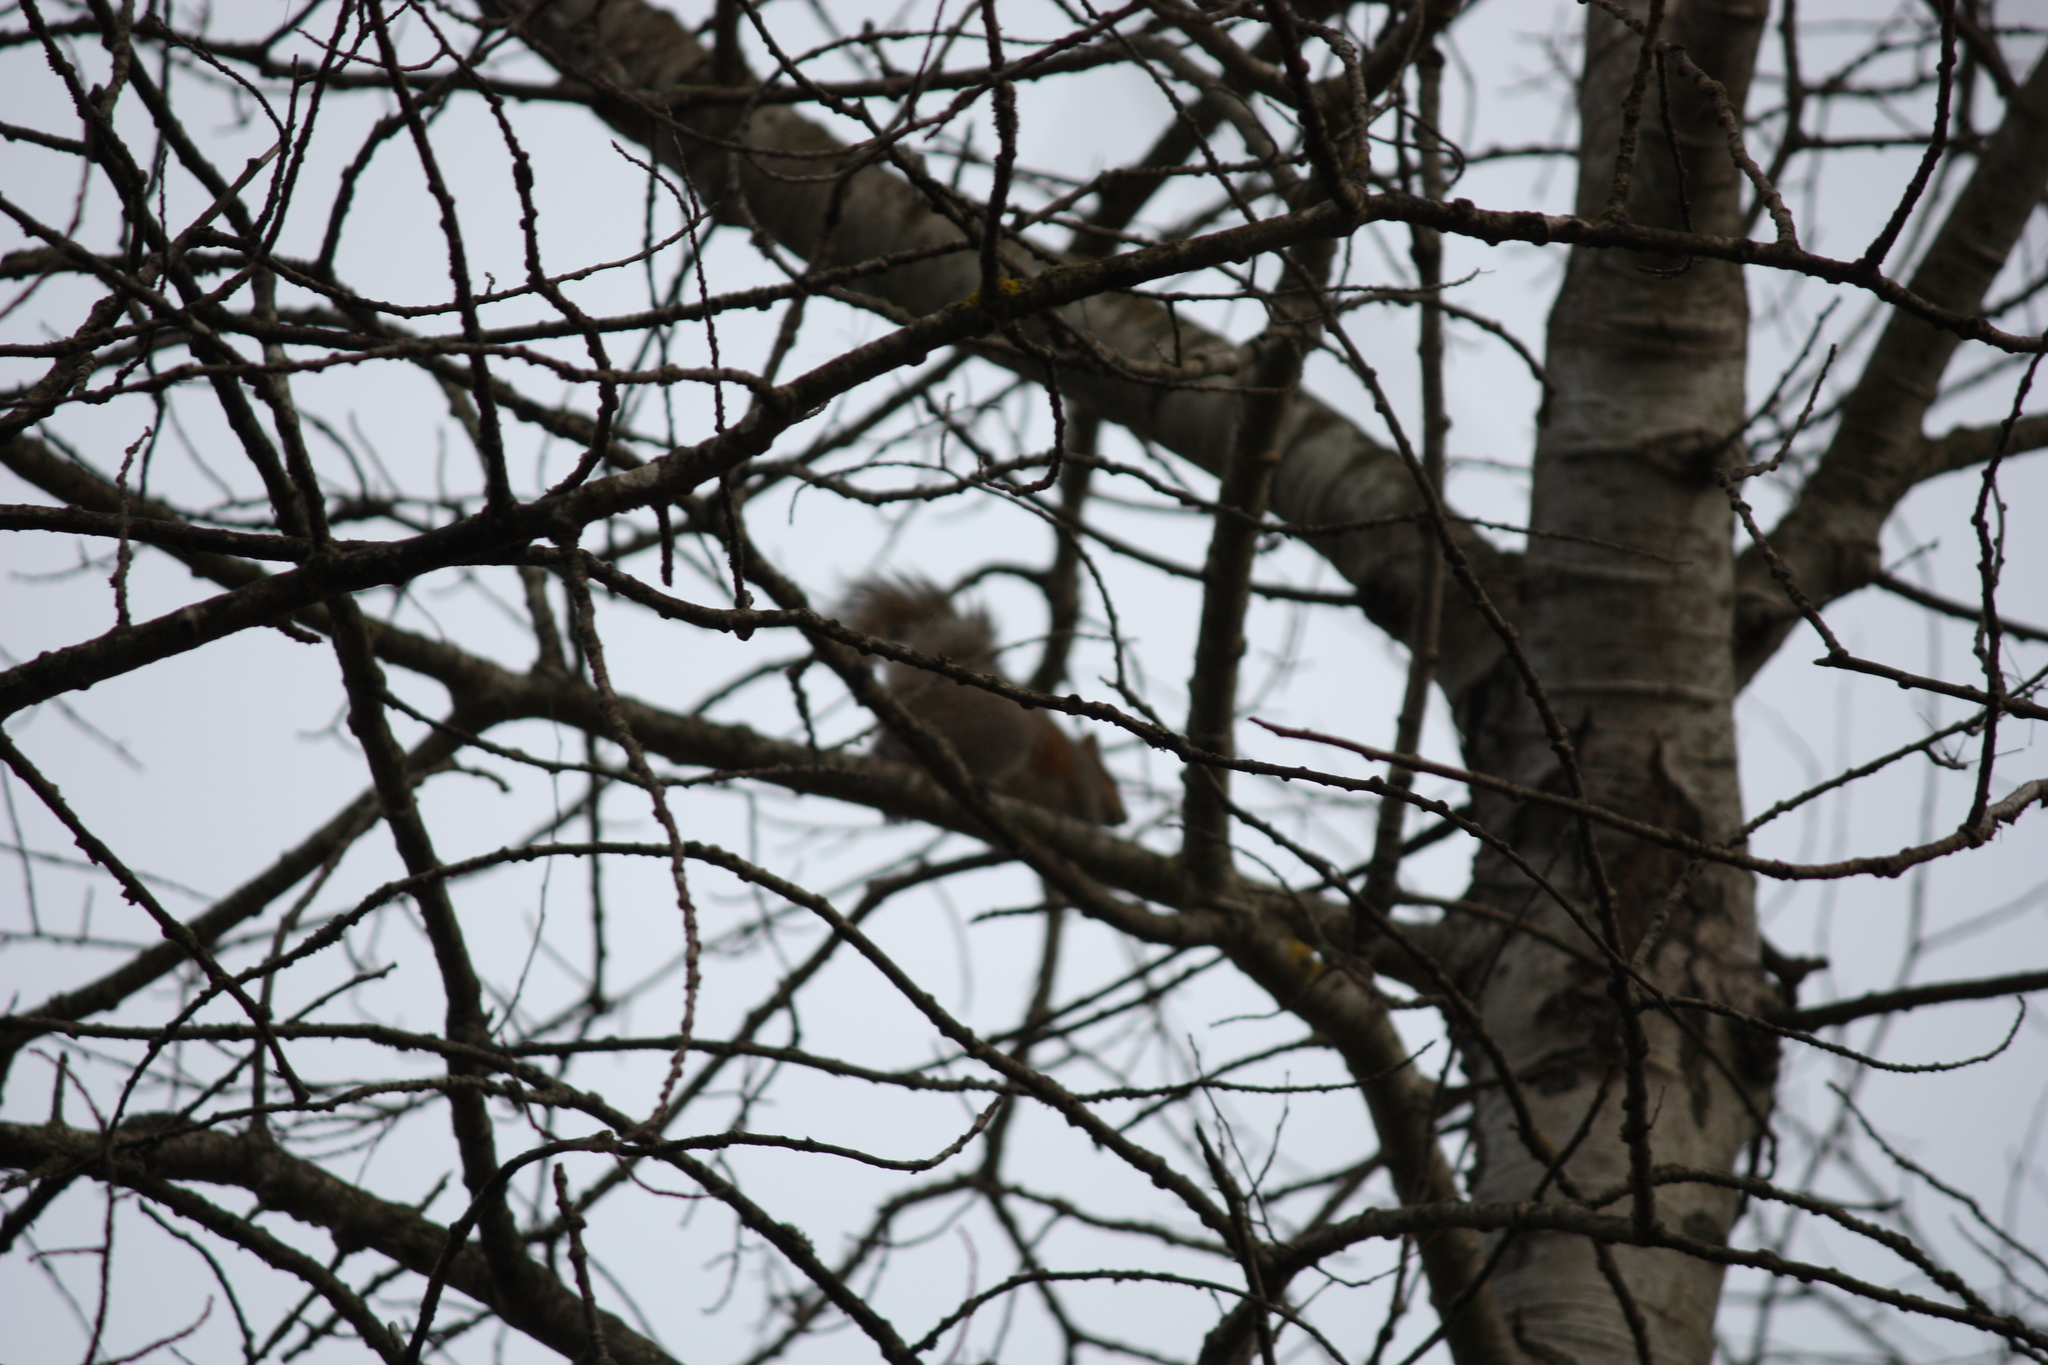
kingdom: Animalia
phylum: Chordata
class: Mammalia
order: Rodentia
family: Sciuridae
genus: Sciurus
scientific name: Sciurus carolinensis
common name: Eastern gray squirrel
